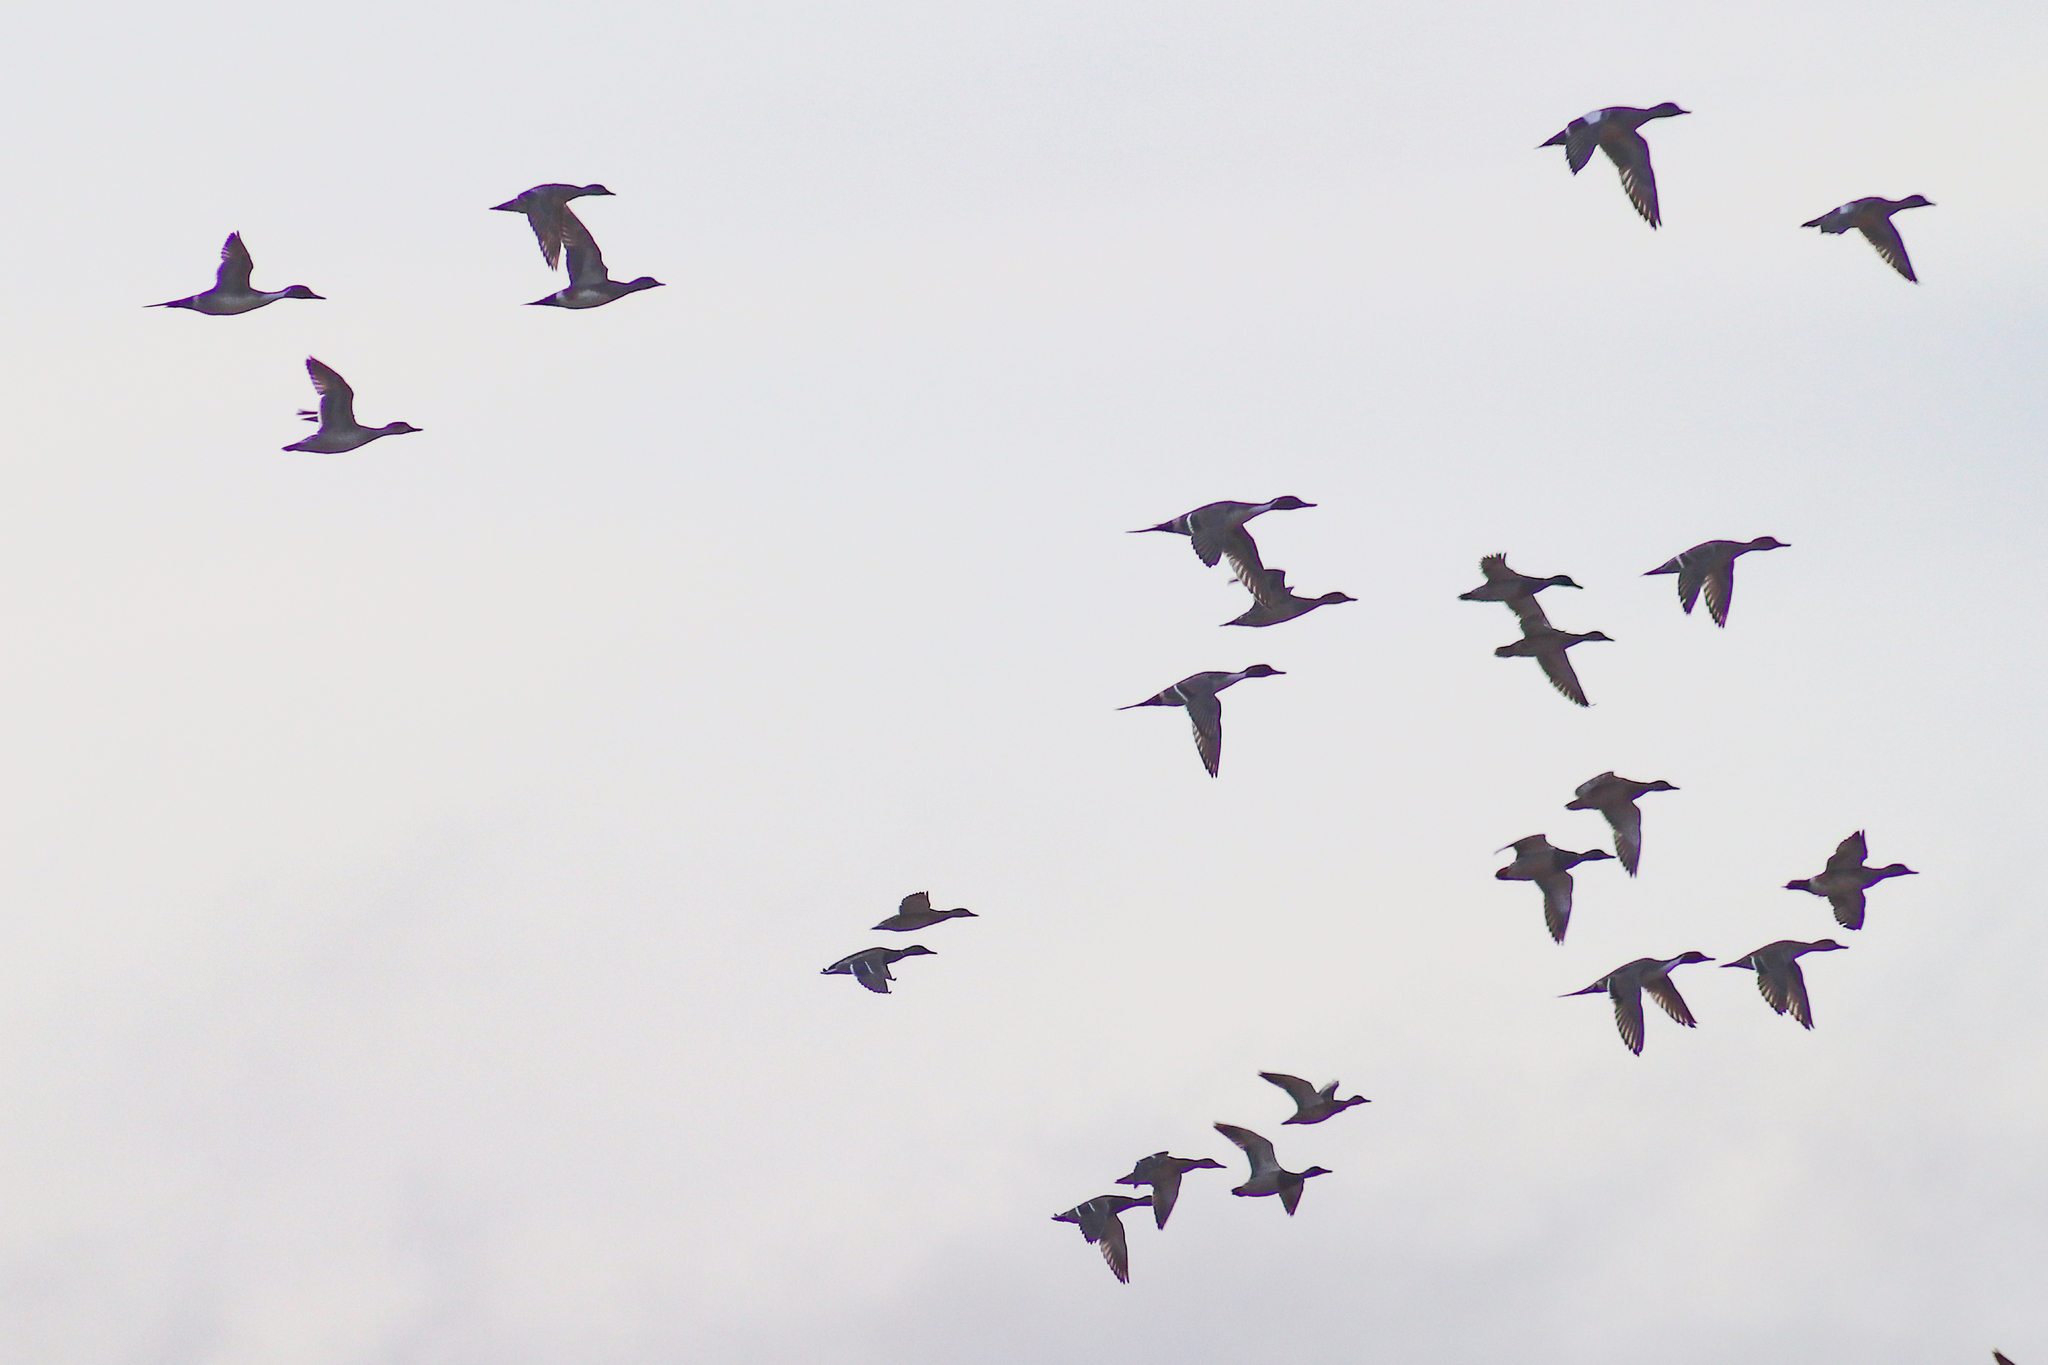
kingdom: Animalia
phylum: Chordata
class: Aves
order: Anseriformes
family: Anatidae
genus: Anas
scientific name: Anas acuta
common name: Northern pintail
